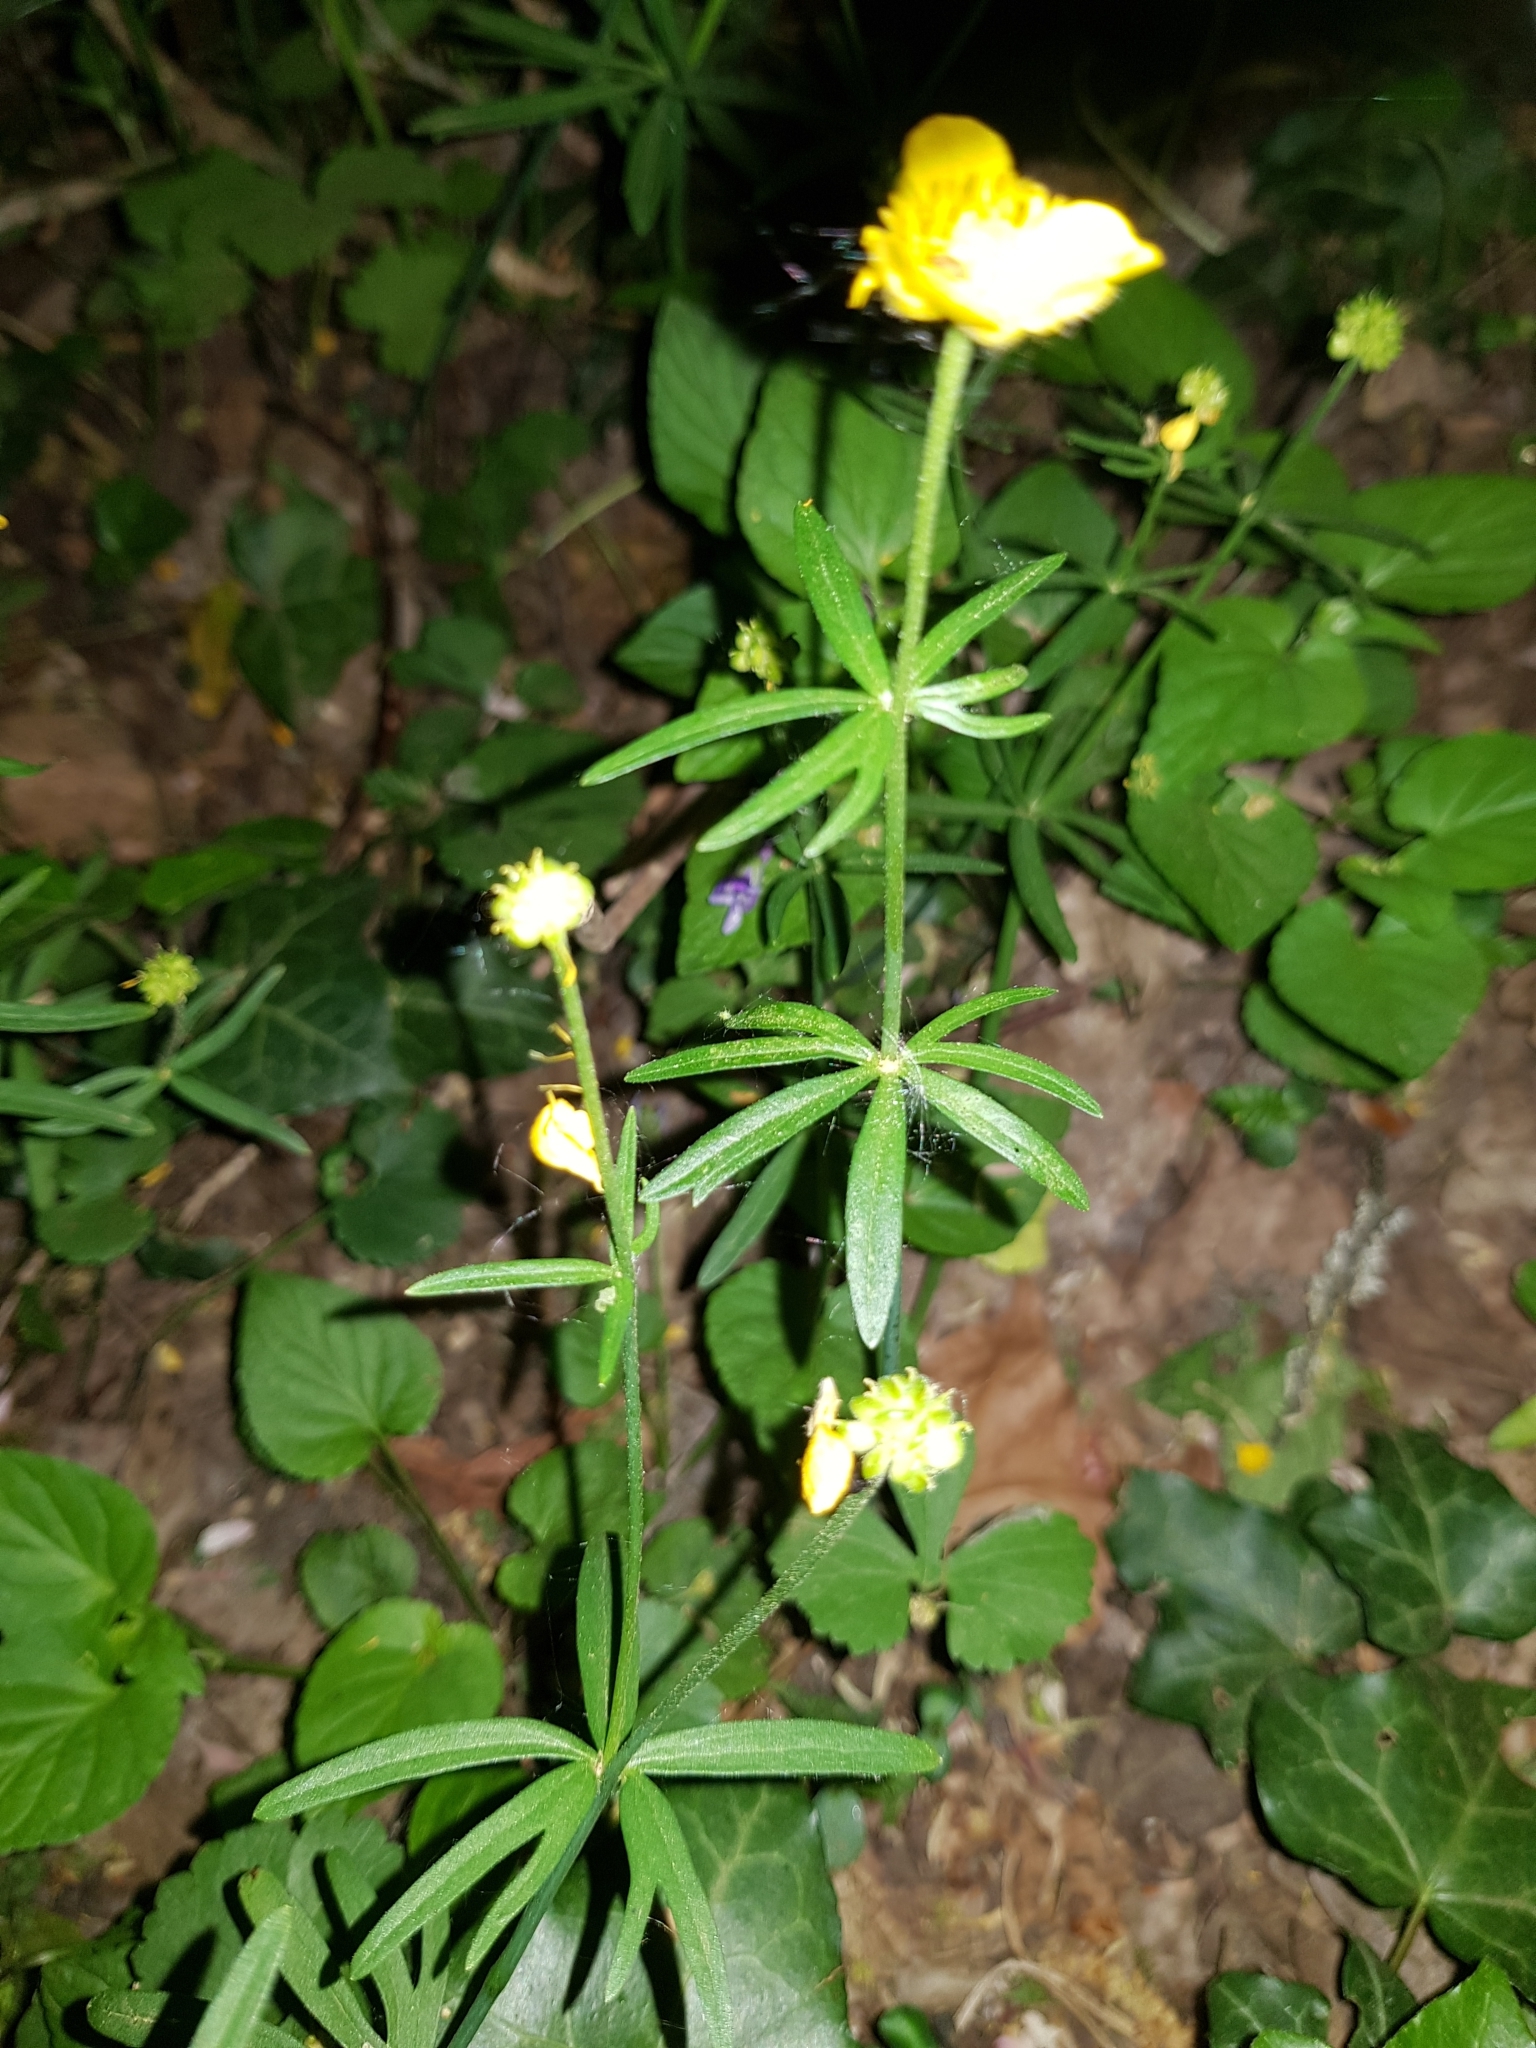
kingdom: Plantae
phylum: Tracheophyta
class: Magnoliopsida
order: Ranunculales
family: Ranunculaceae
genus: Ranunculus
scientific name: Ranunculus auricomus
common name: Goldilocks buttercup
